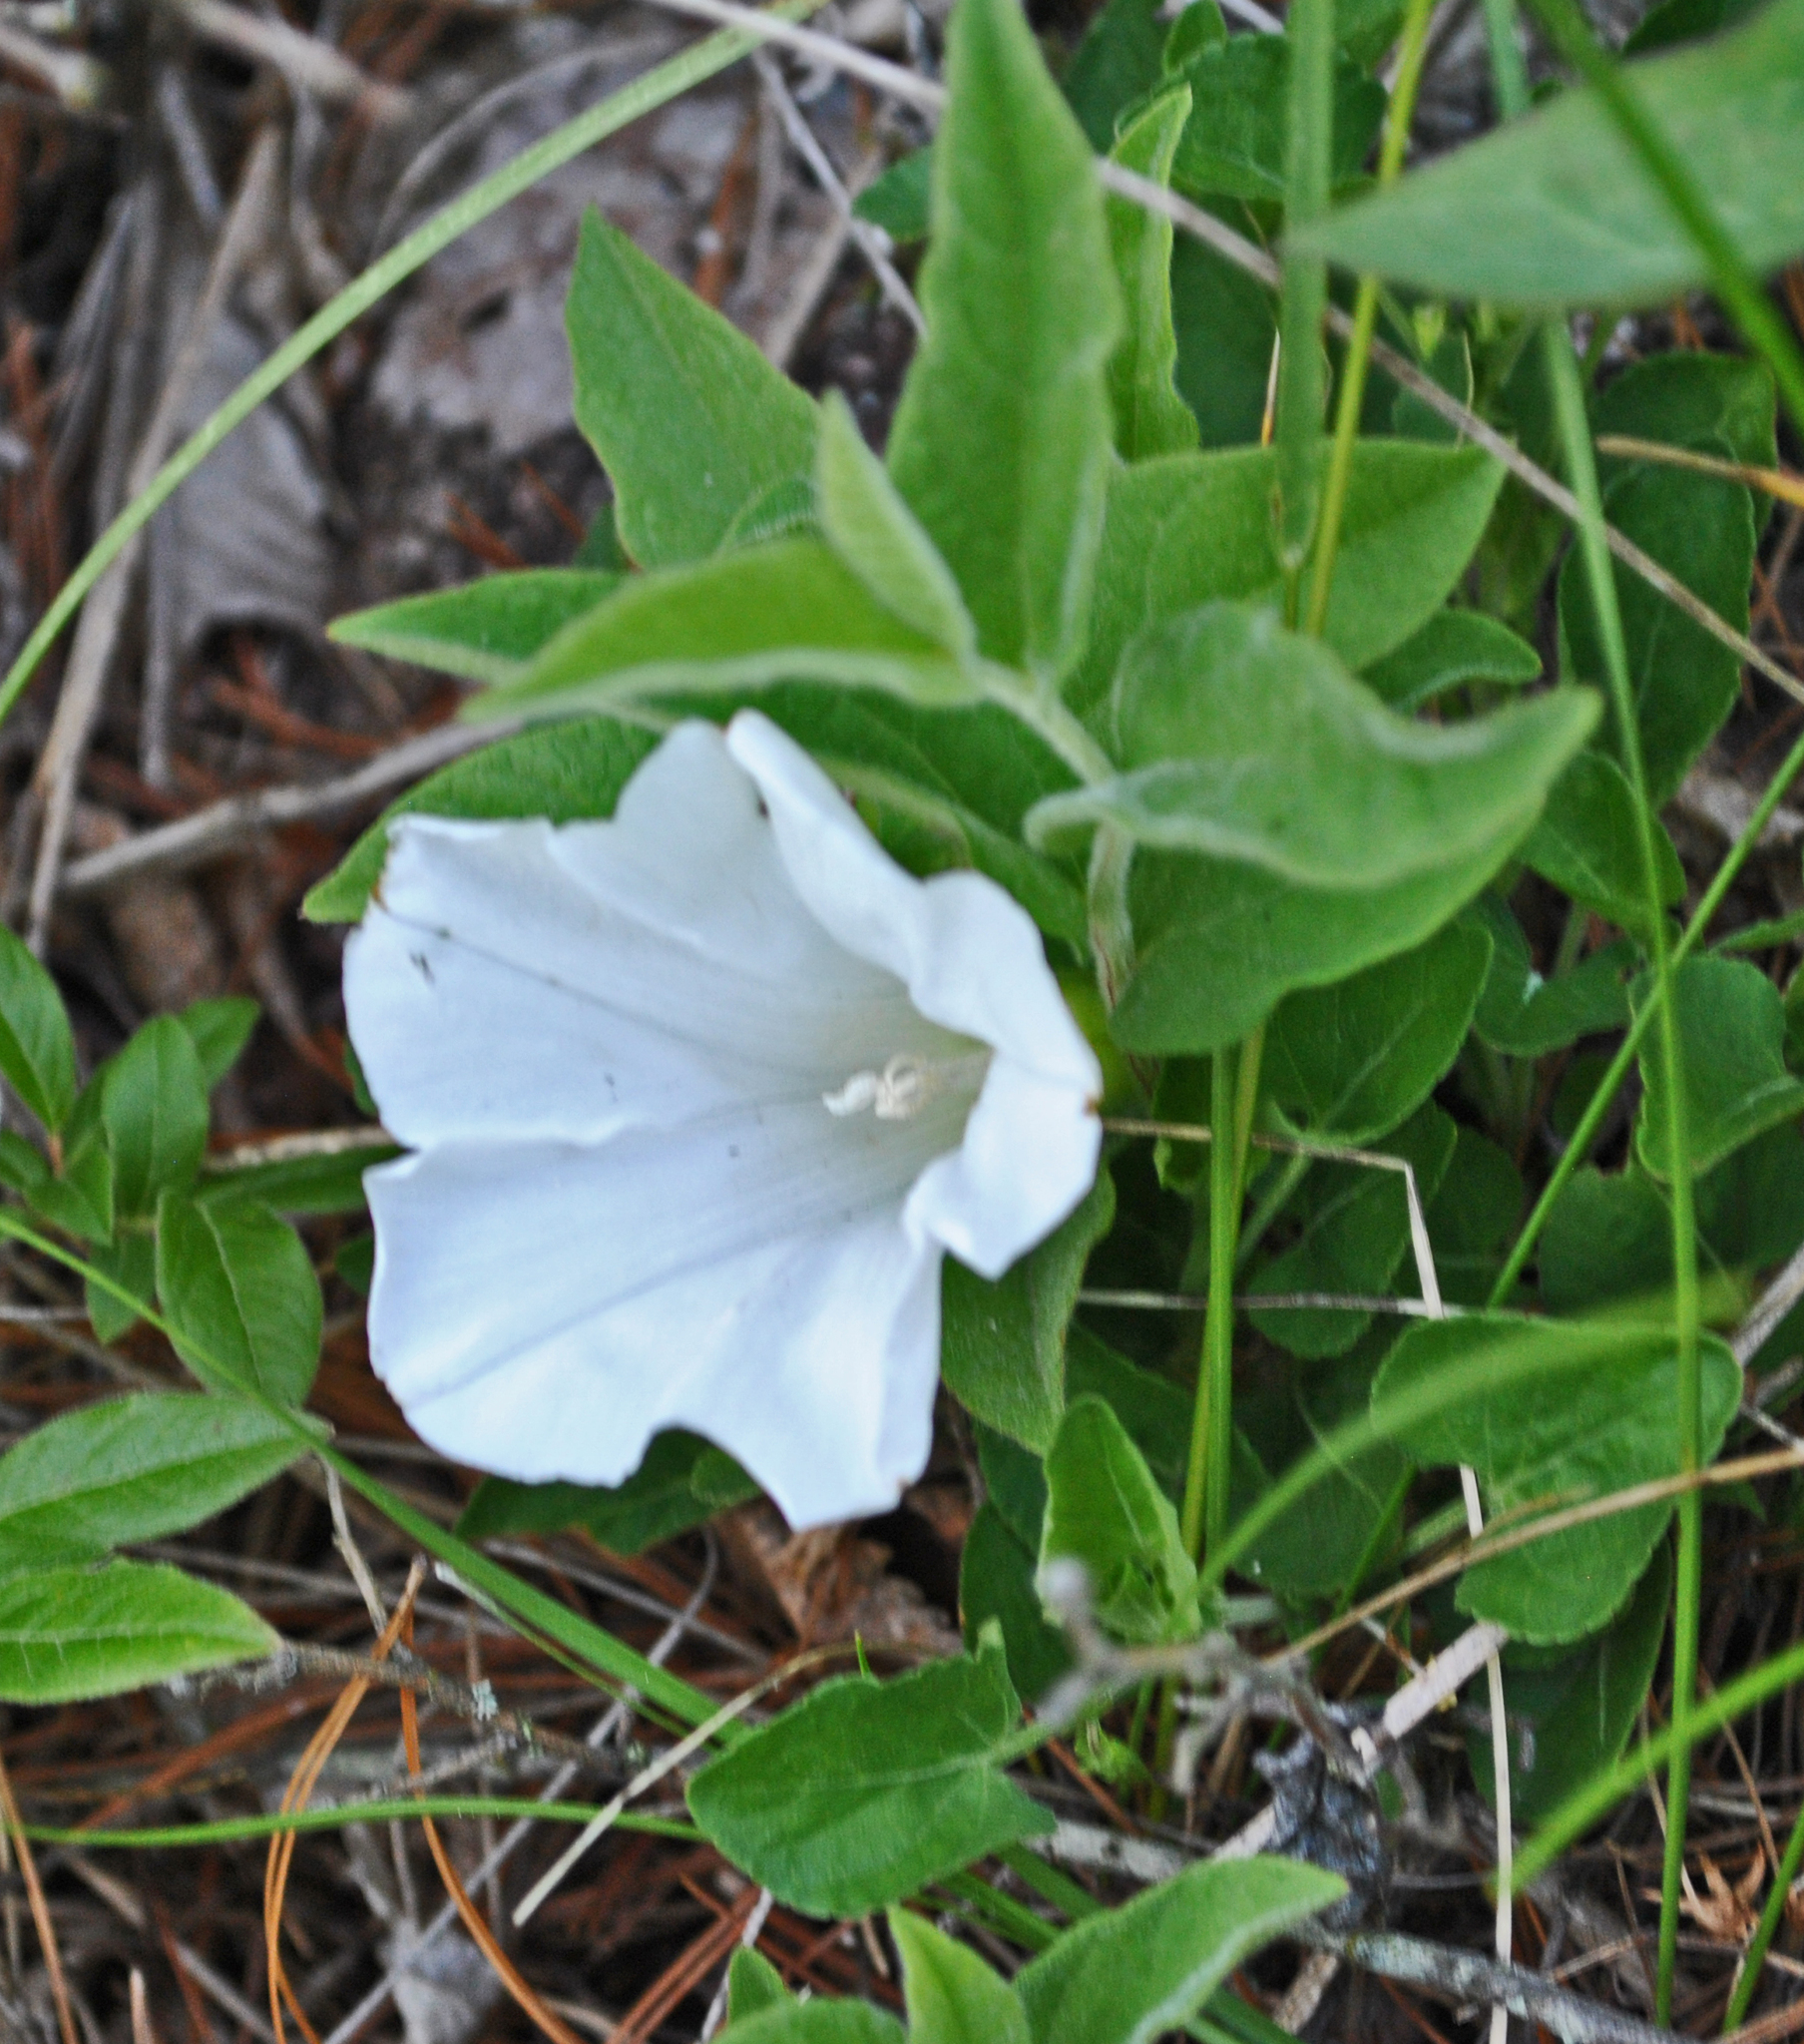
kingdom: Plantae
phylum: Tracheophyta
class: Magnoliopsida
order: Solanales
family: Convolvulaceae
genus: Calystegia
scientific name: Calystegia spithamaea
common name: Dwarf bindweed
